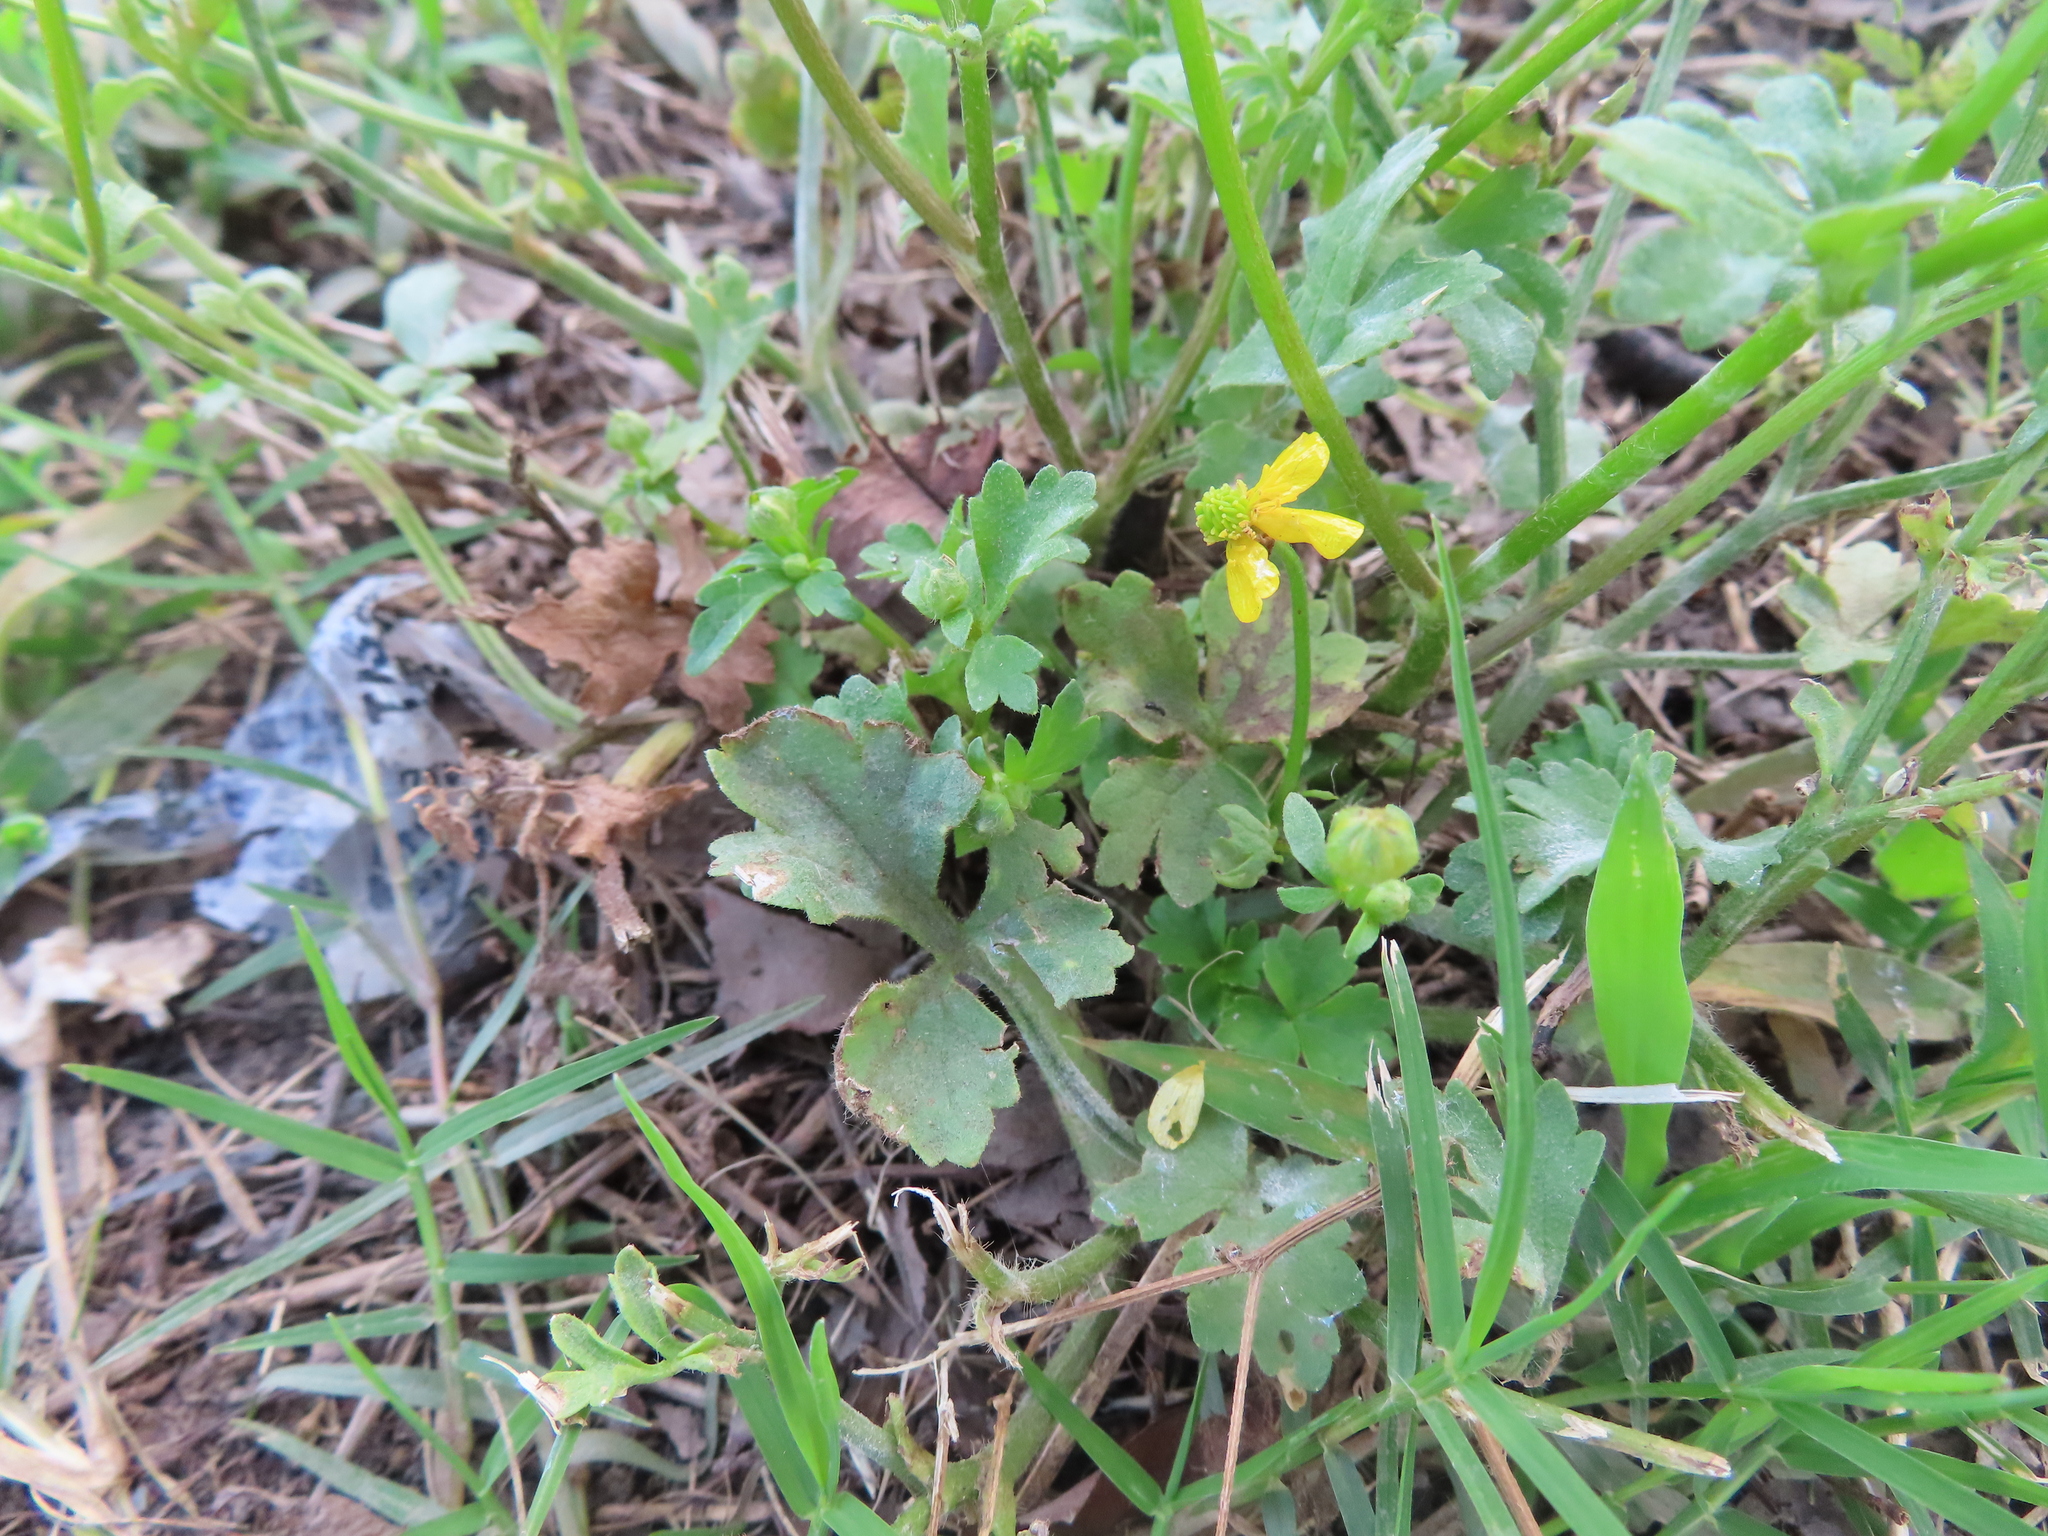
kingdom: Plantae
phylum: Tracheophyta
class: Magnoliopsida
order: Ranunculales
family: Ranunculaceae
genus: Ranunculus
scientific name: Ranunculus sardous
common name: Hairy buttercup
